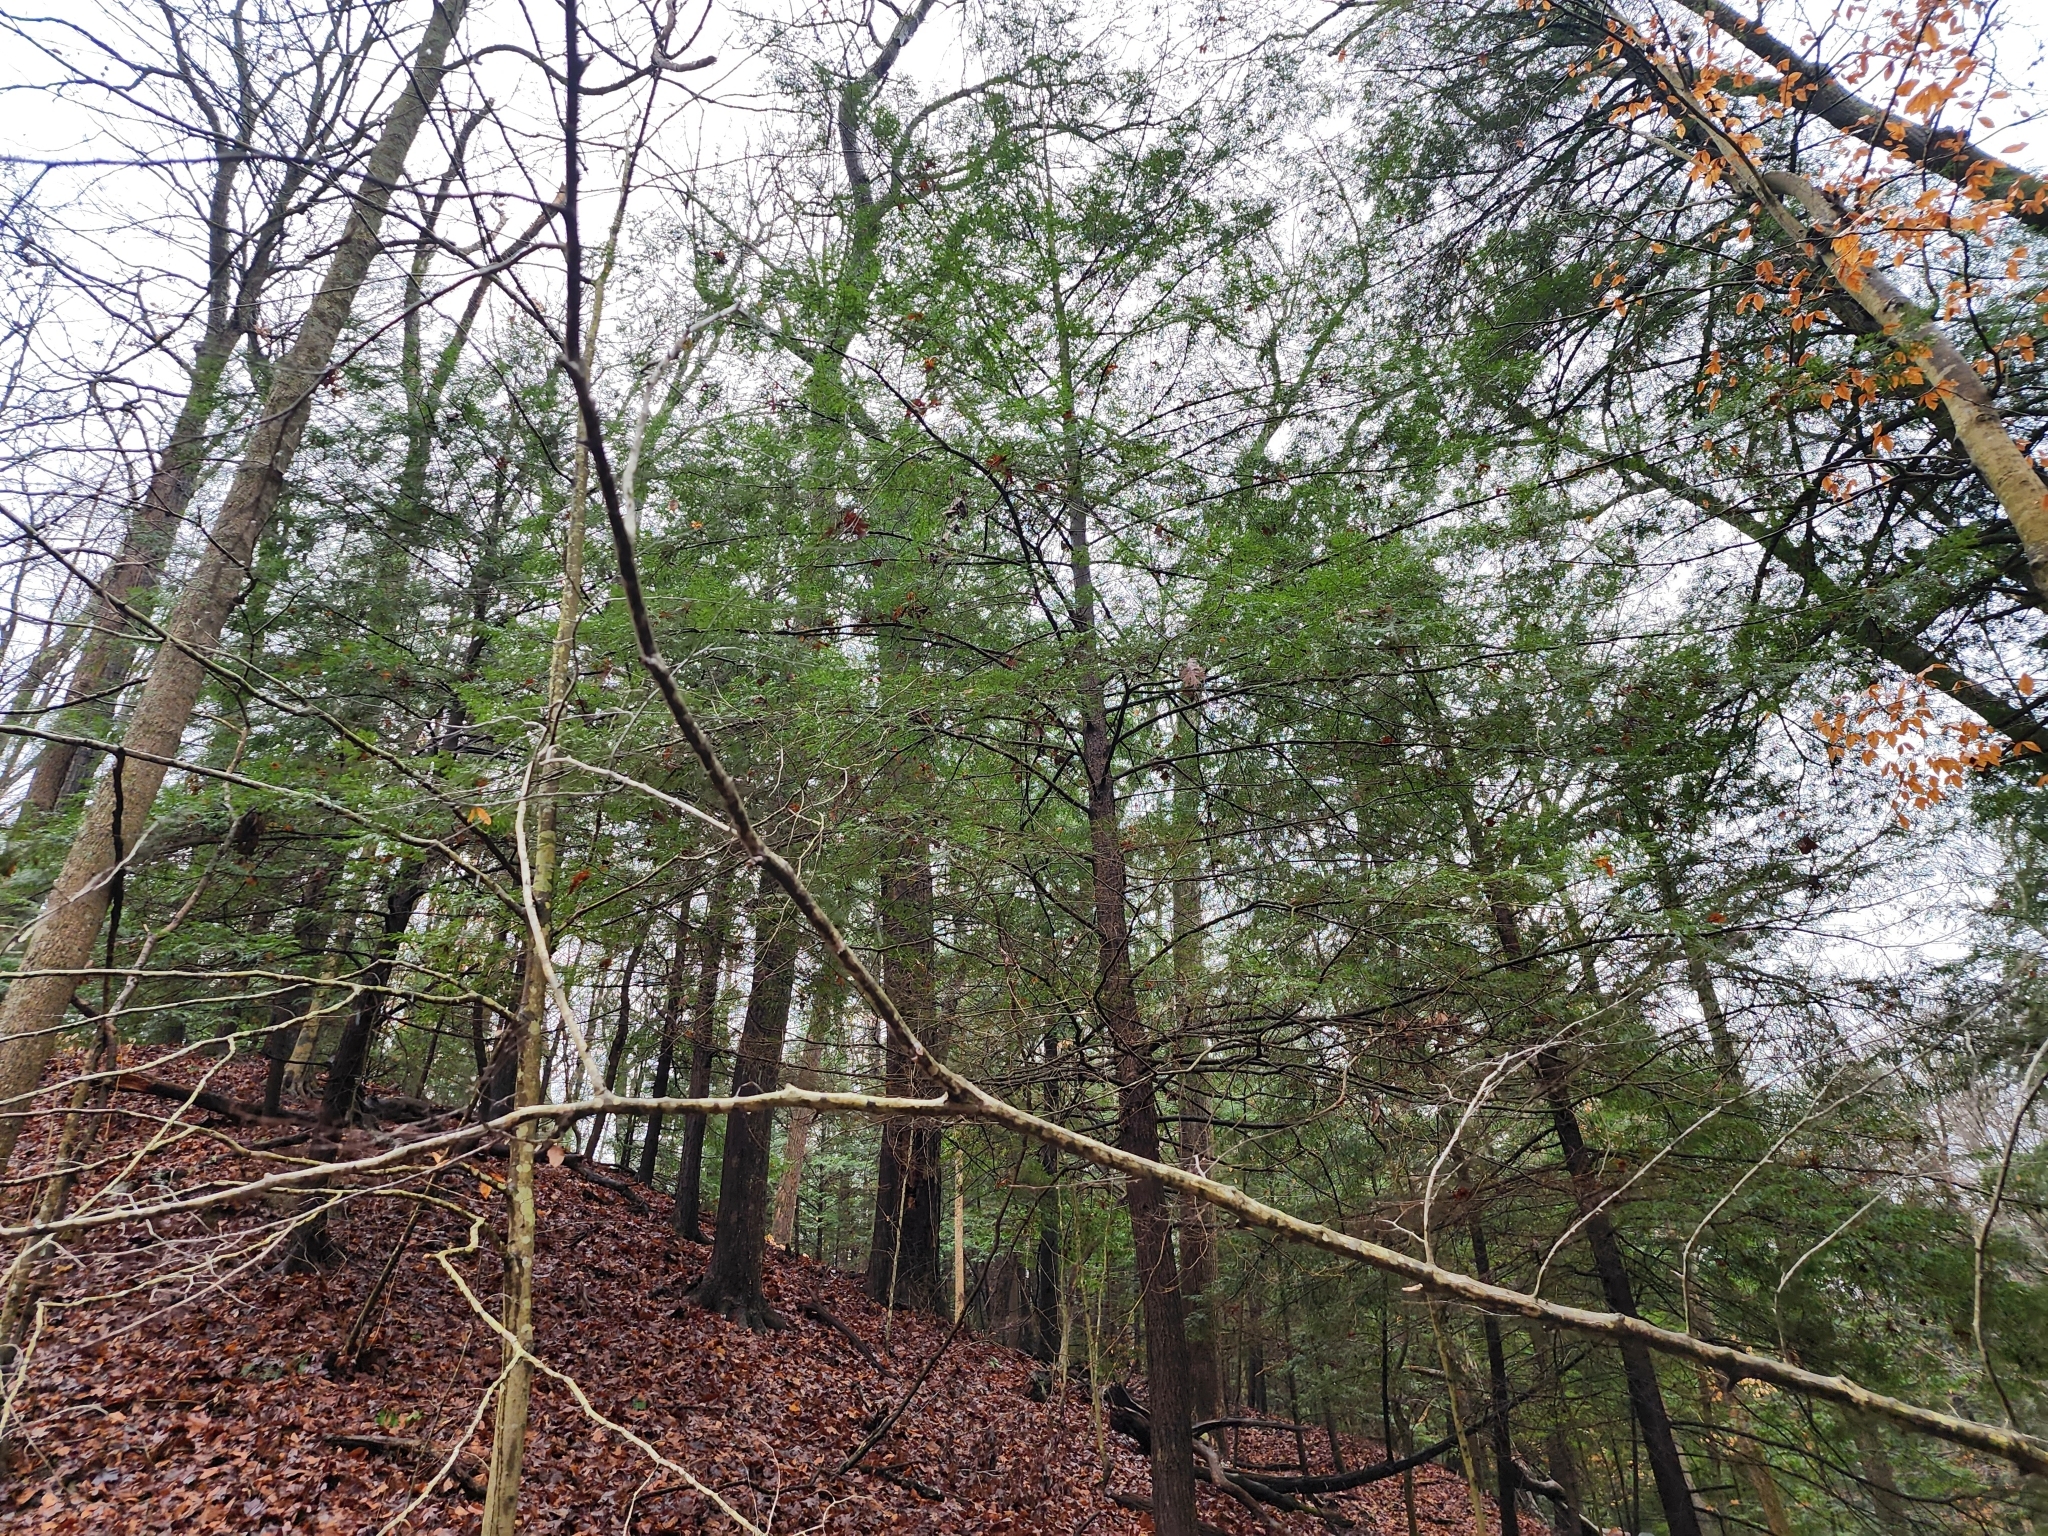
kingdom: Plantae
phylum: Tracheophyta
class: Pinopsida
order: Pinales
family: Pinaceae
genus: Tsuga
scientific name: Tsuga canadensis
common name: Eastern hemlock
